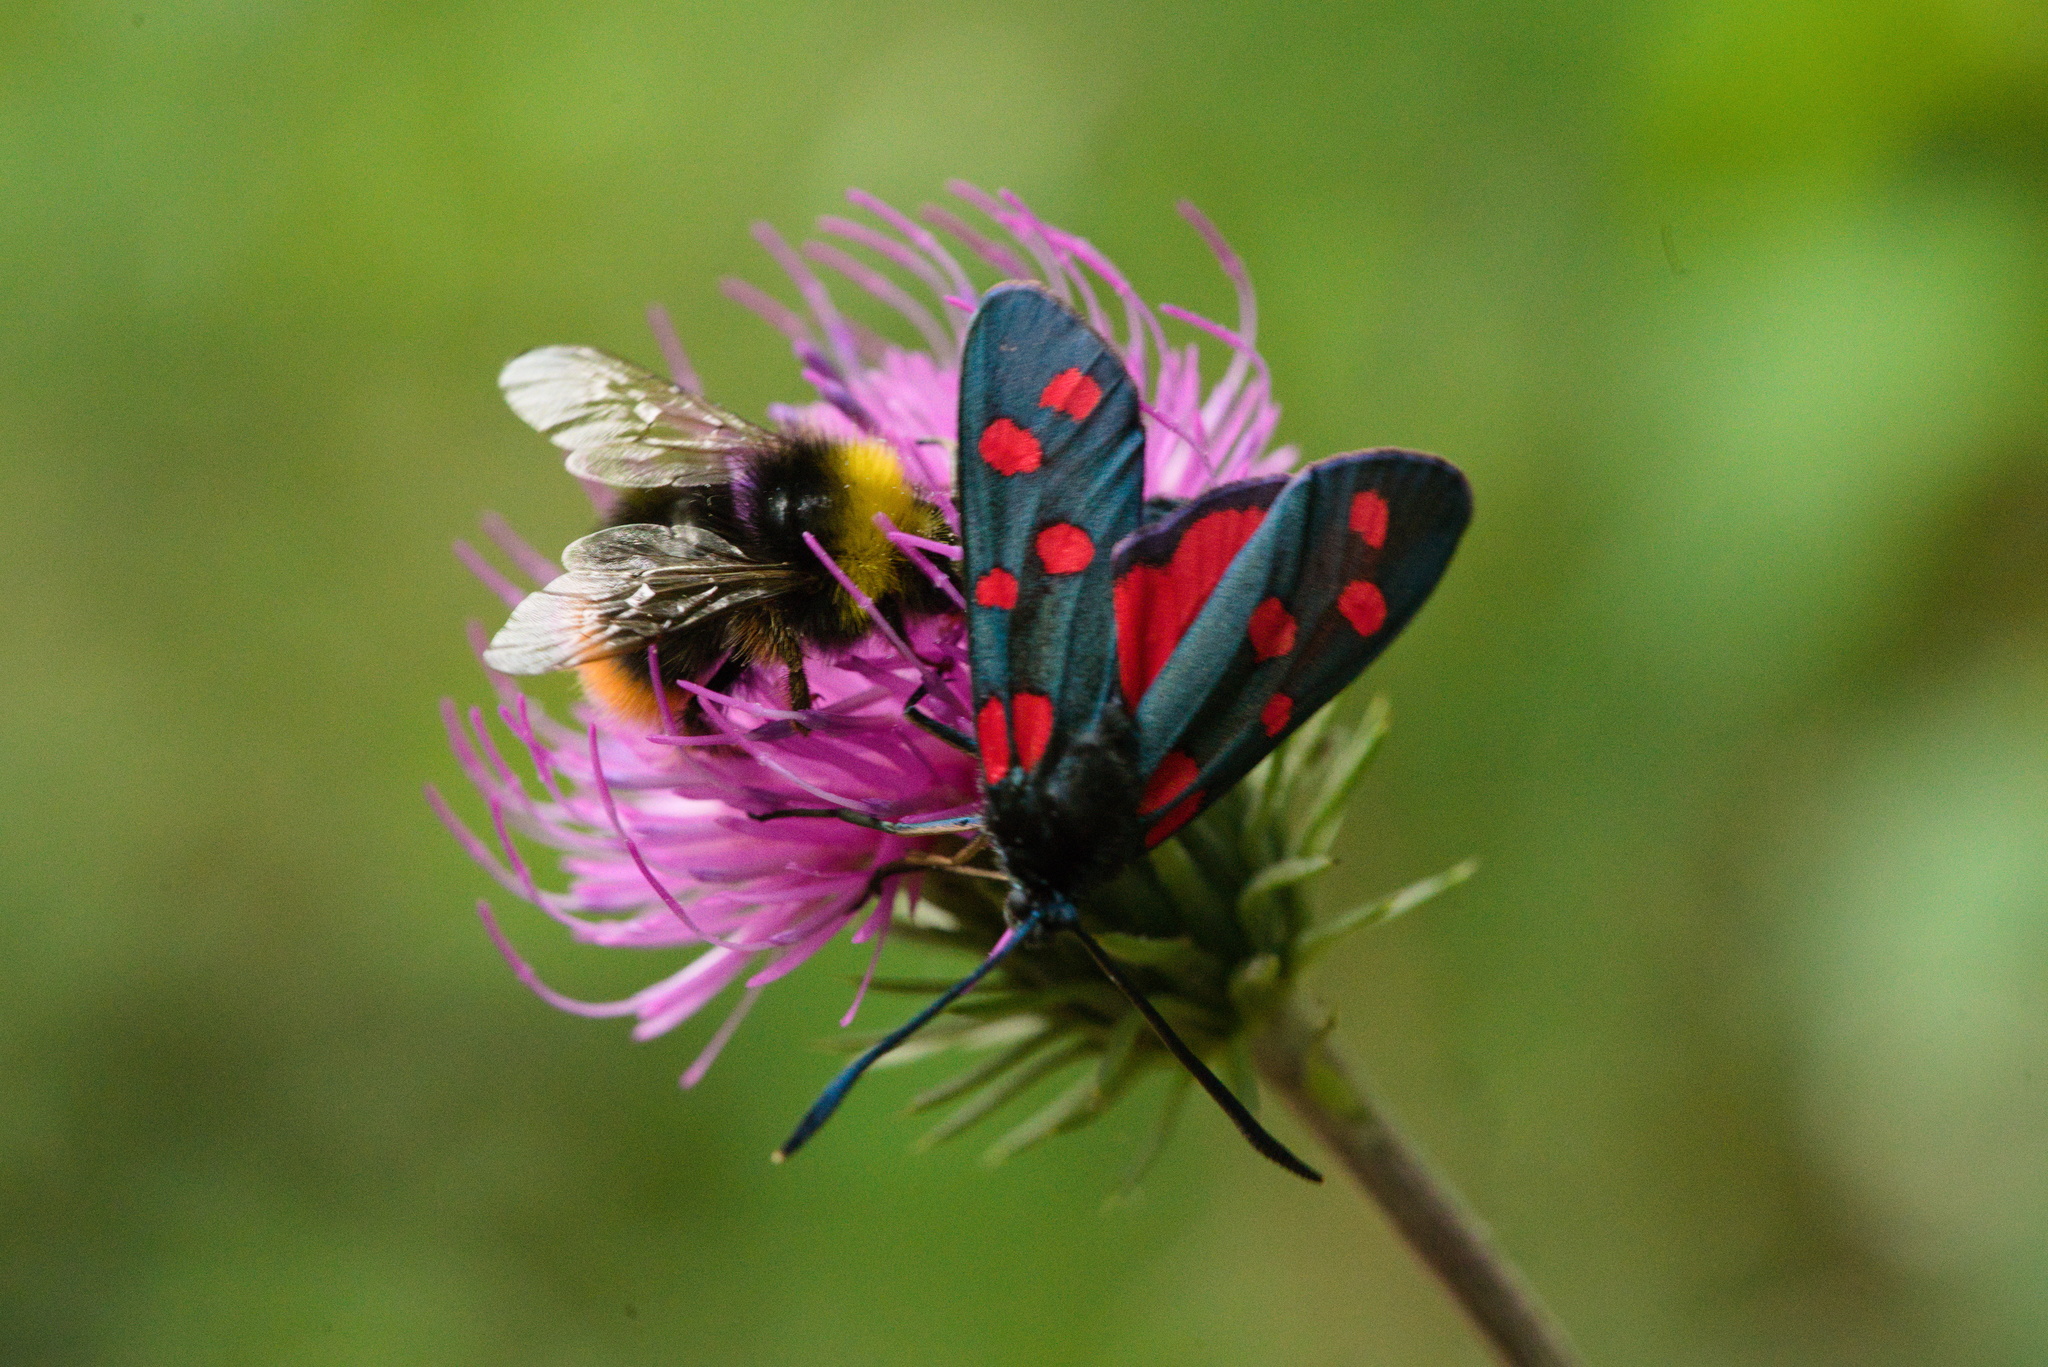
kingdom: Animalia
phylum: Arthropoda
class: Insecta
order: Lepidoptera
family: Zygaenidae
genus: Zygaena
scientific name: Zygaena transalpina
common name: Southern six spot burnet
